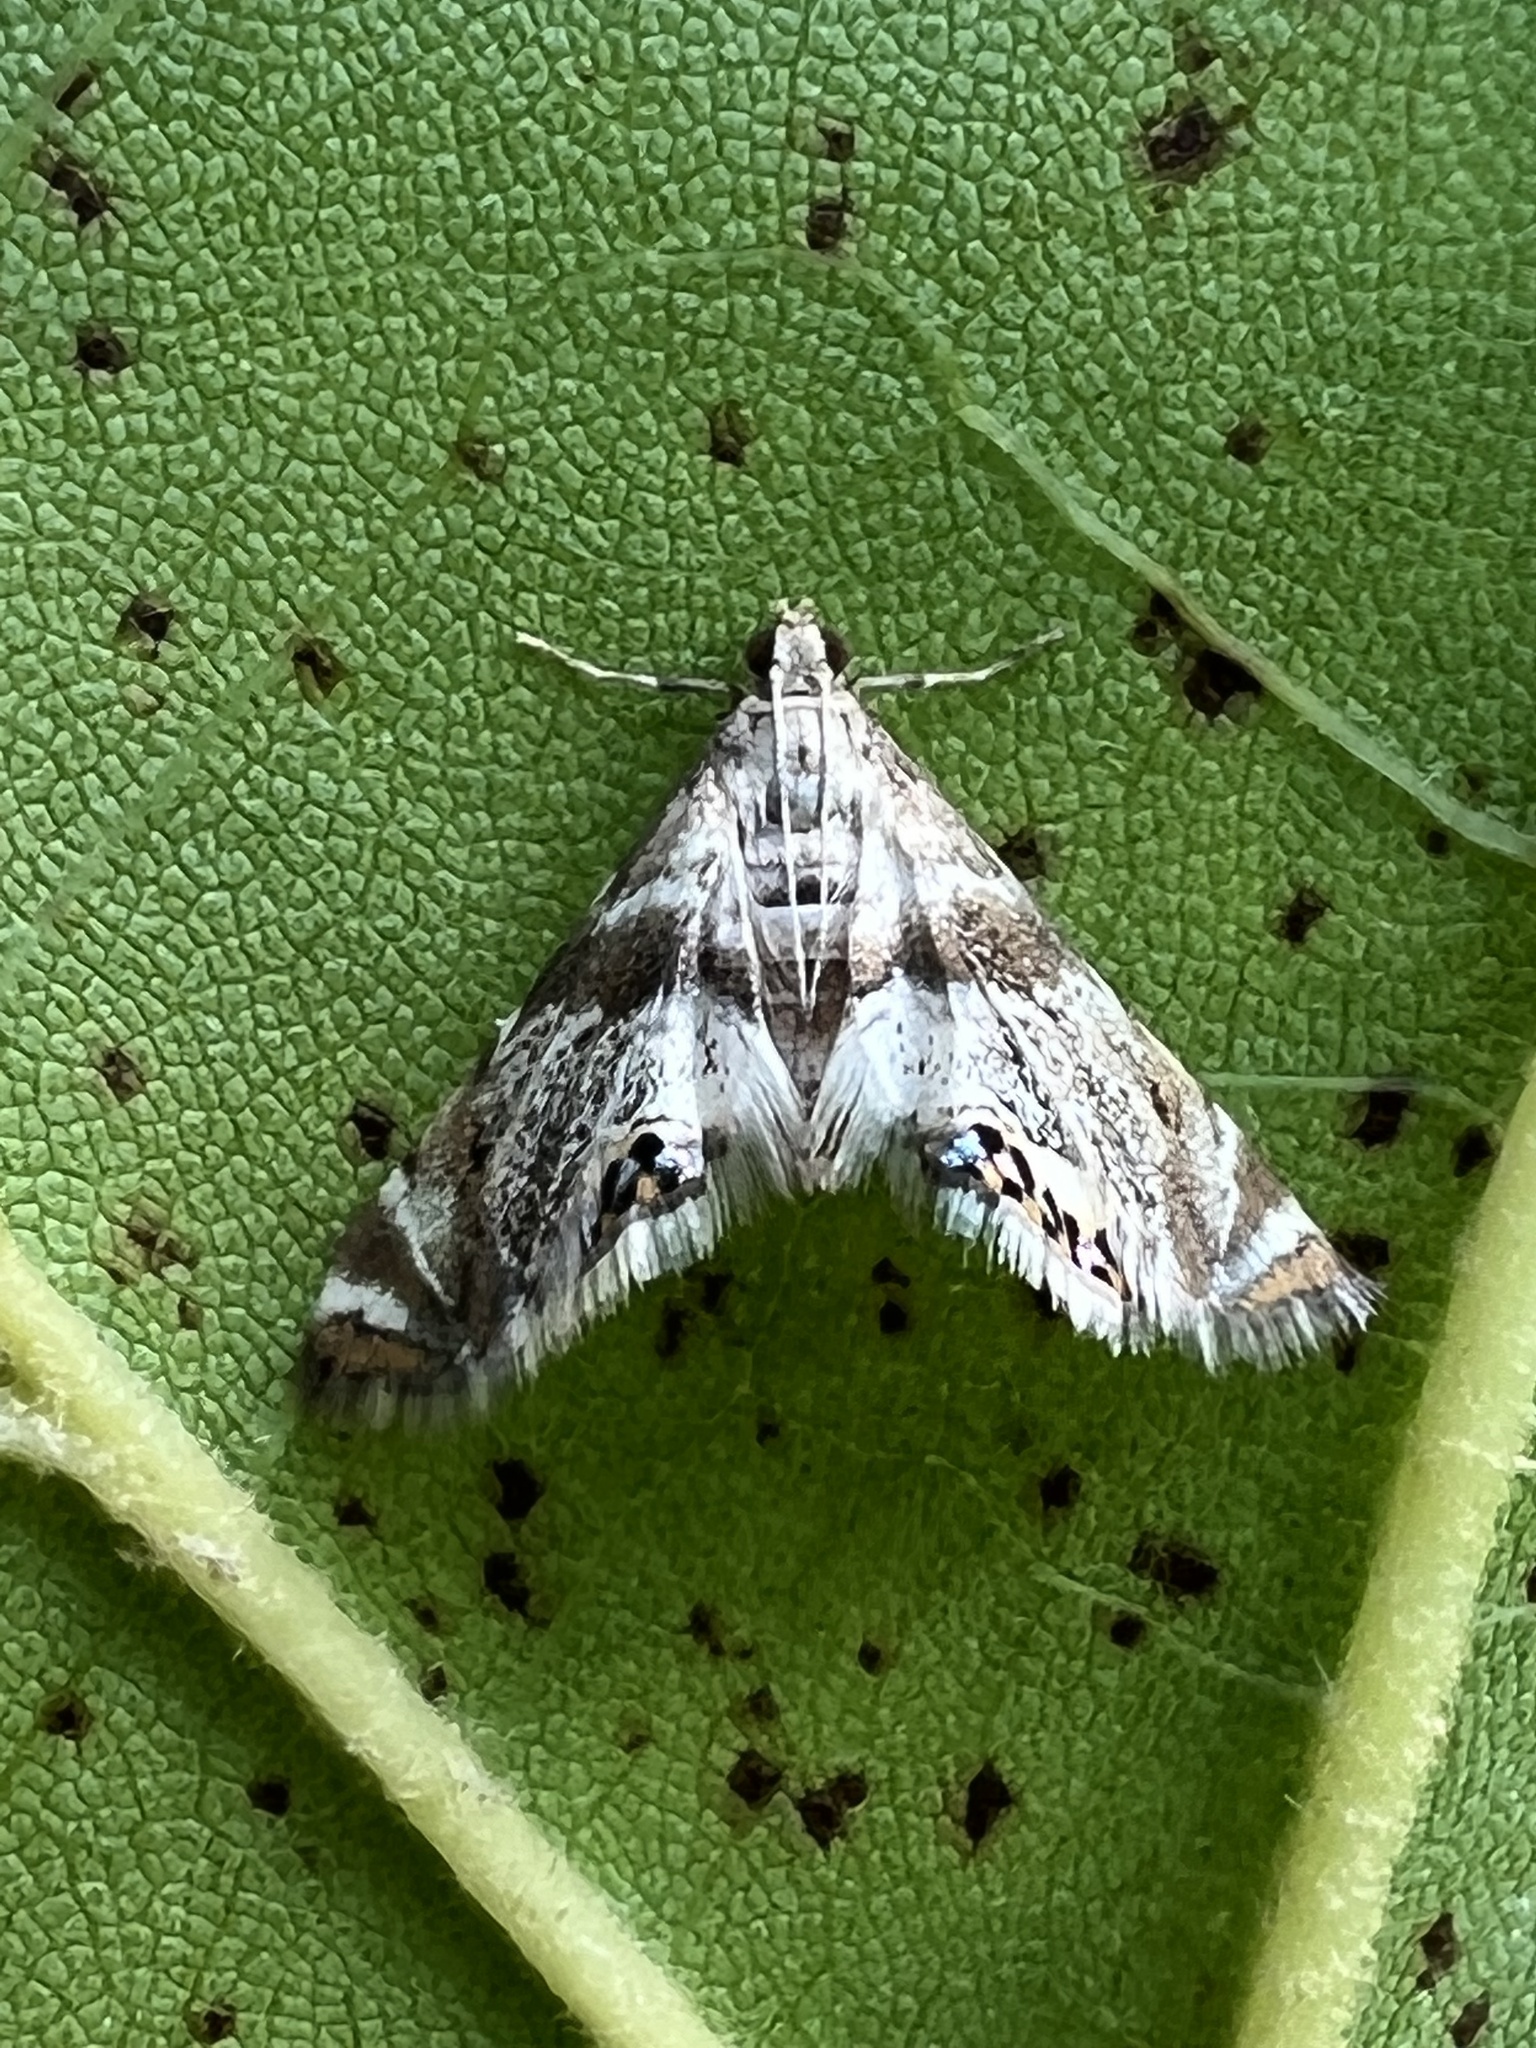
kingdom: Animalia
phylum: Arthropoda
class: Insecta
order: Lepidoptera
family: Crambidae
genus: Petrophila
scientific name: Petrophila fulicalis
